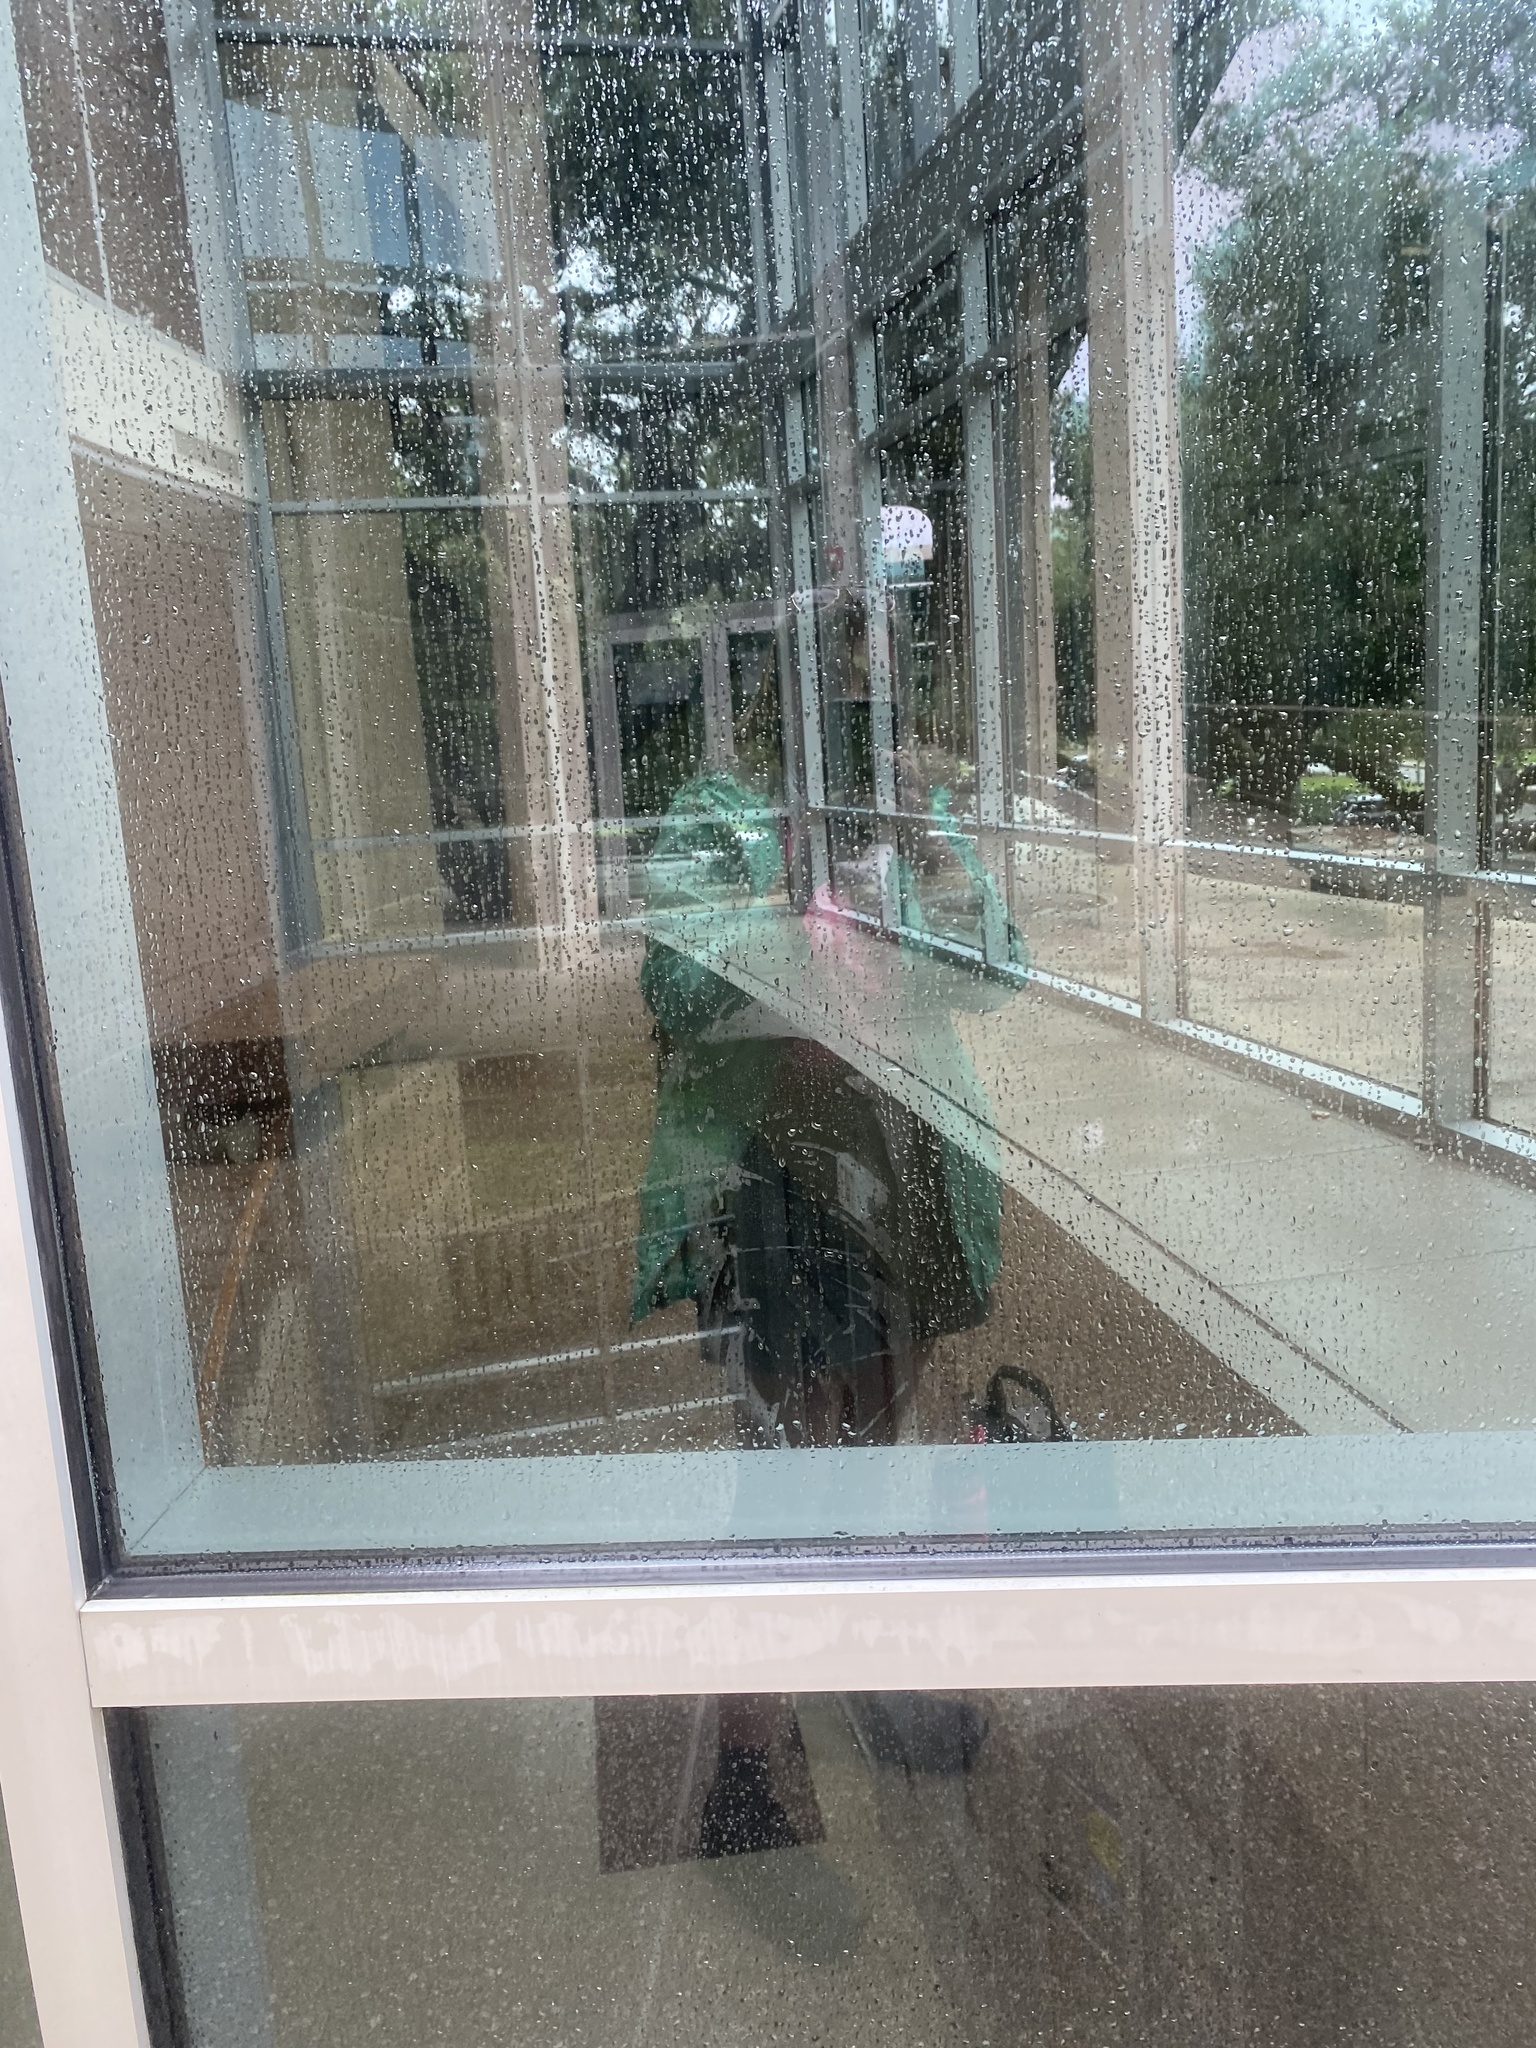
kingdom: Animalia
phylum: Chordata
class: Aves
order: Passeriformes
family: Parulidae
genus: Geothlypis
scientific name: Geothlypis trichas
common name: Common yellowthroat
